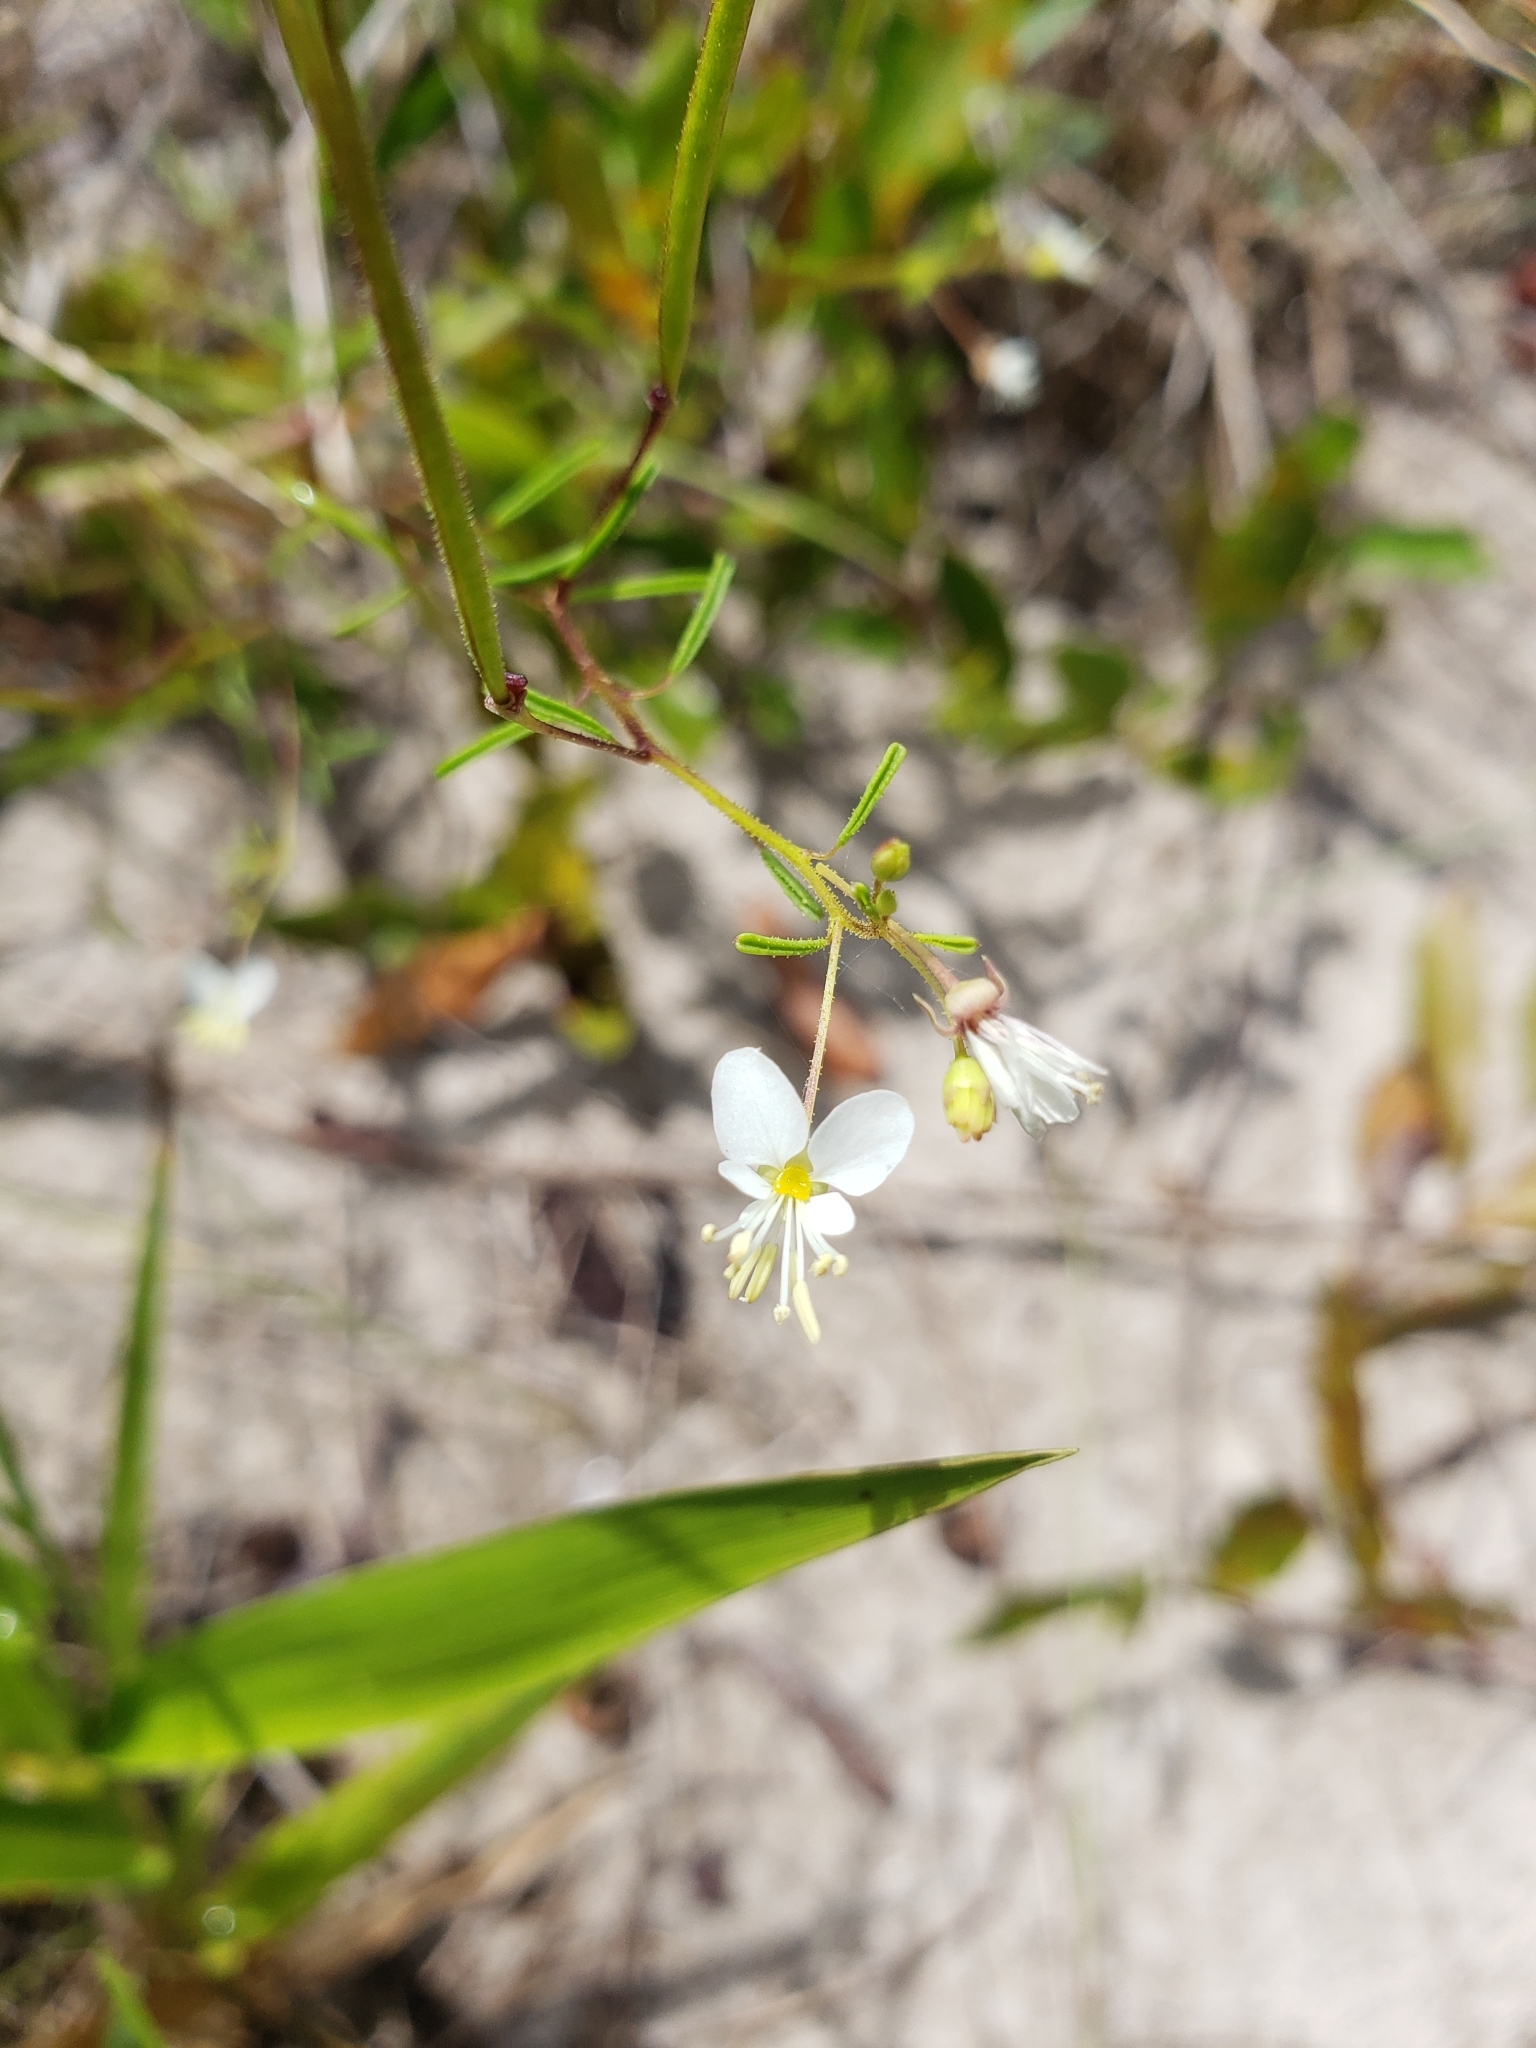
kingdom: Plantae
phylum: Tracheophyta
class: Magnoliopsida
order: Brassicales
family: Cleomaceae
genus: Polanisia
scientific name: Polanisia tenuifolia
